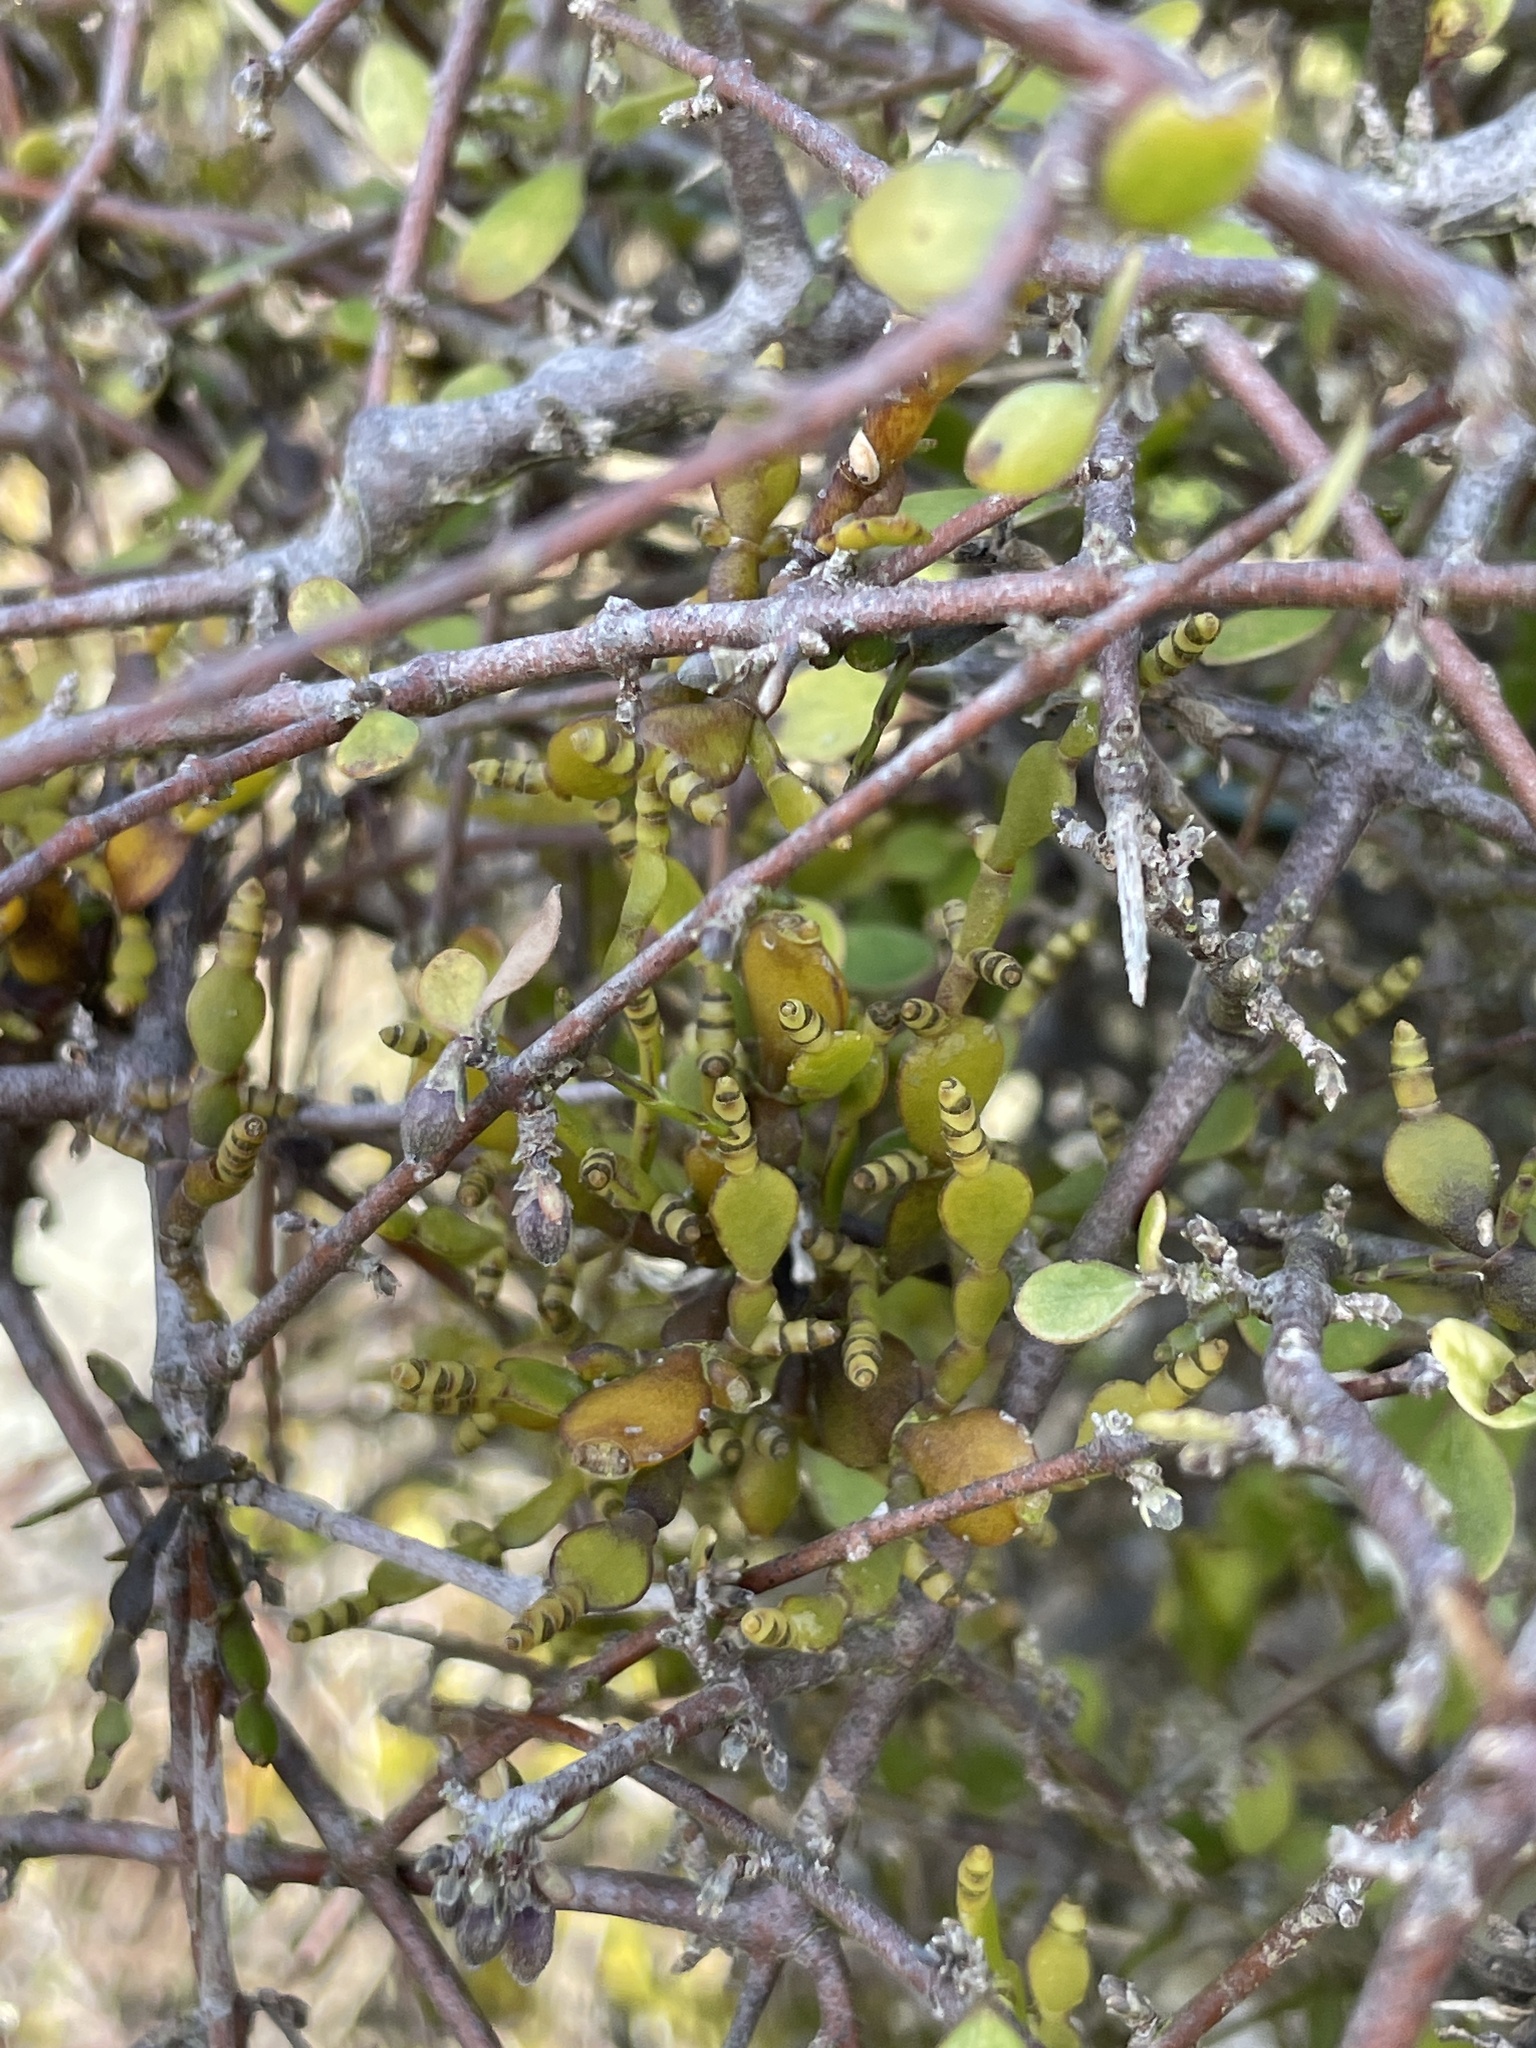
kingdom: Plantae
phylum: Tracheophyta
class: Magnoliopsida
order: Santalales
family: Viscaceae
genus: Korthalsella
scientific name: Korthalsella lindsayi
